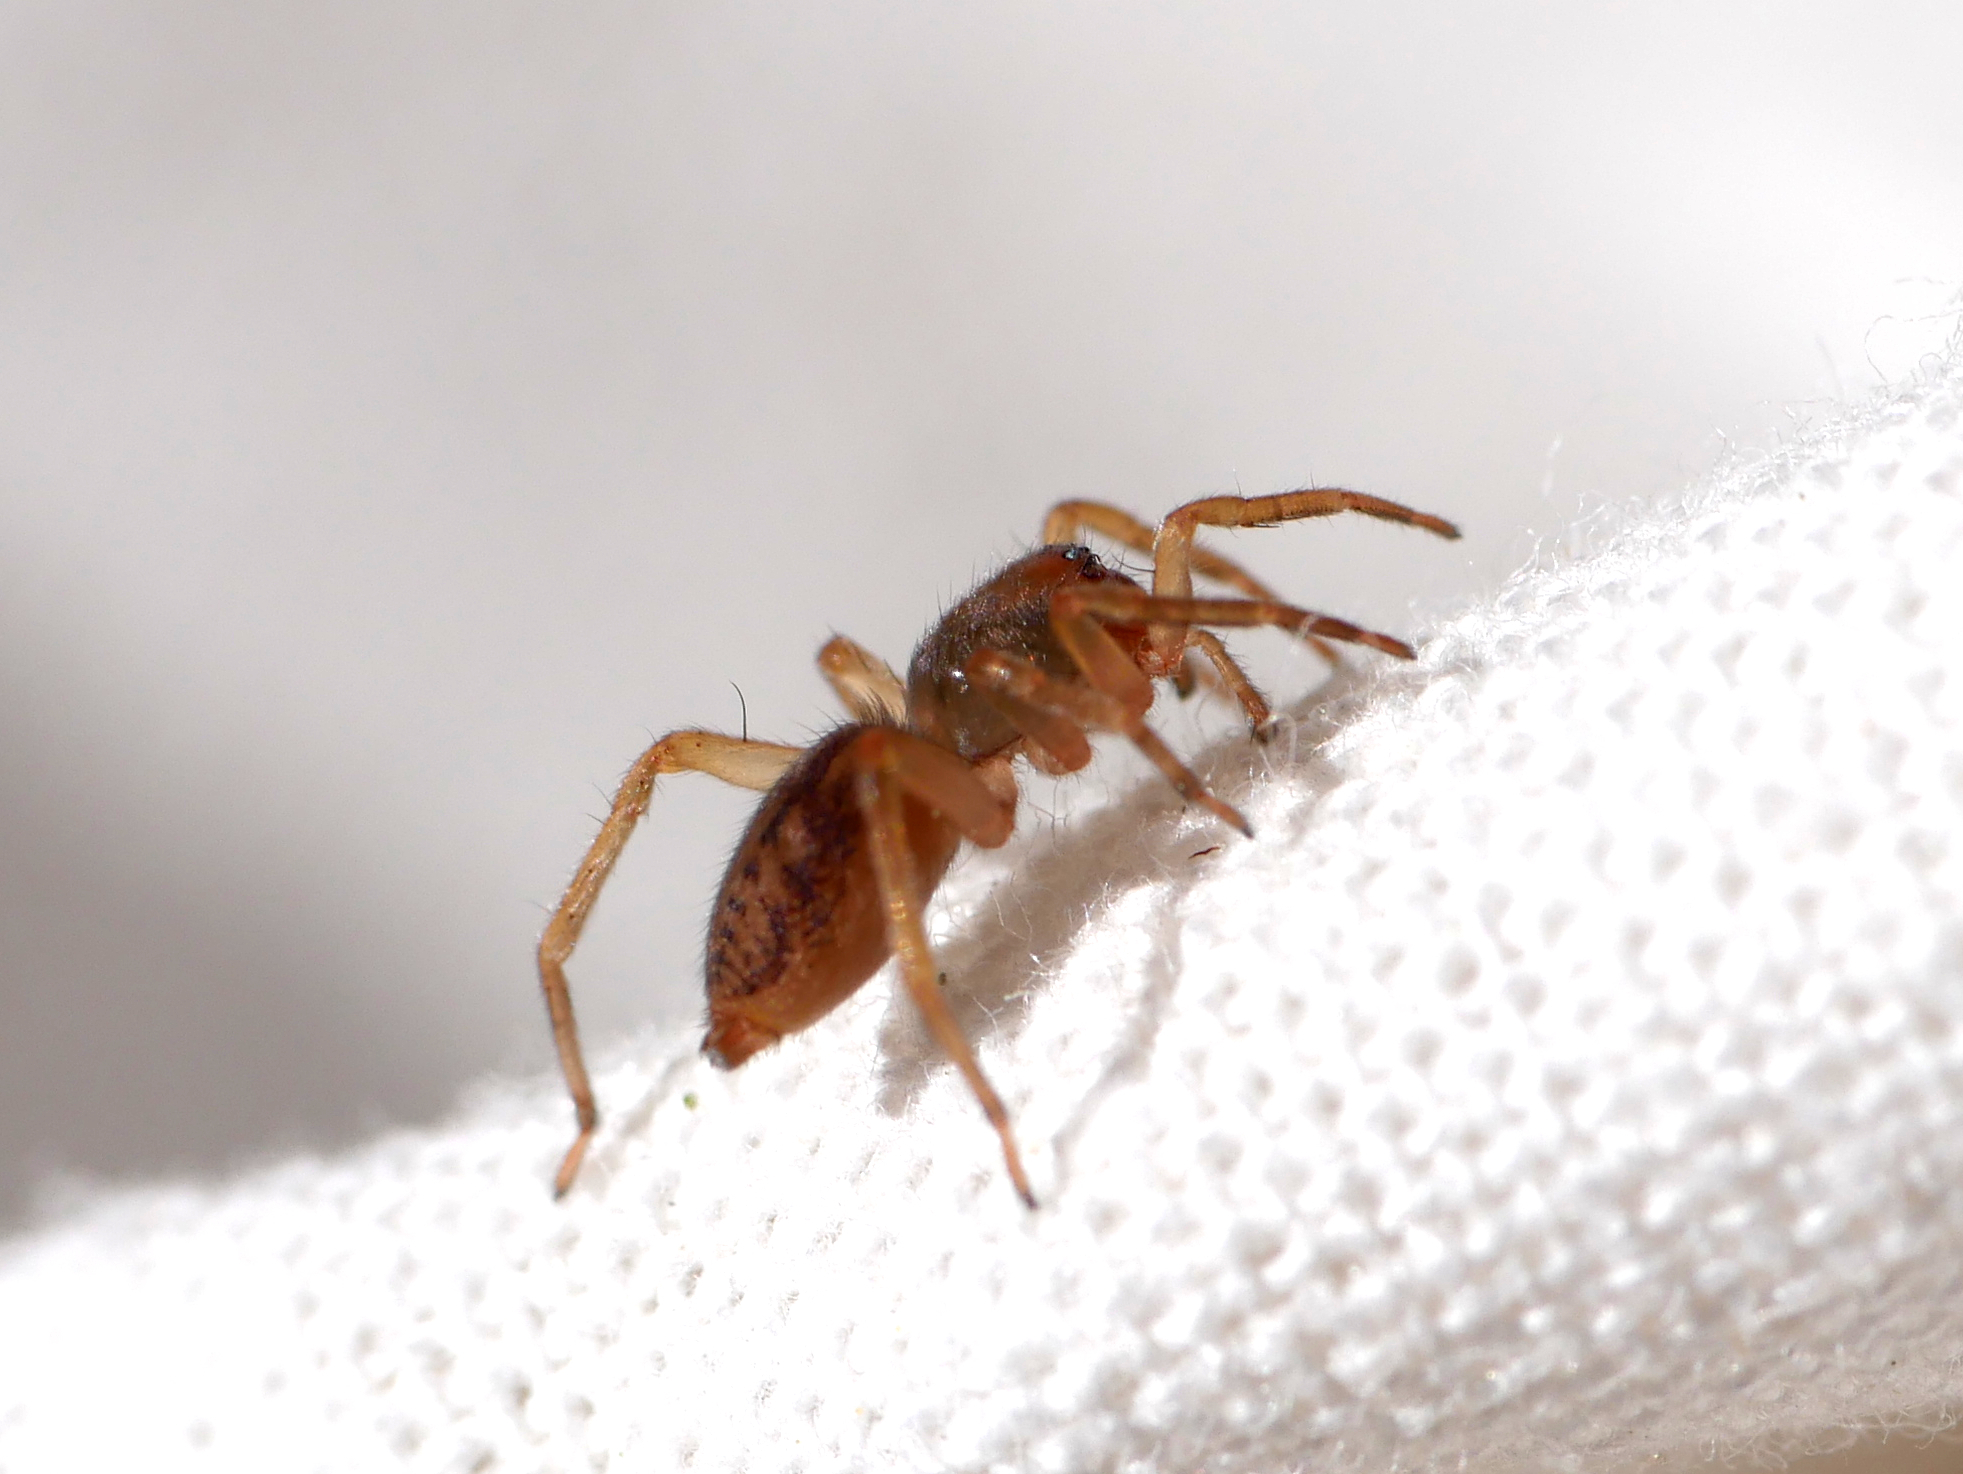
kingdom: Animalia
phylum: Arthropoda
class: Arachnida
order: Araneae
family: Clubionidae
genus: Clubiona
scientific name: Clubiona comta
